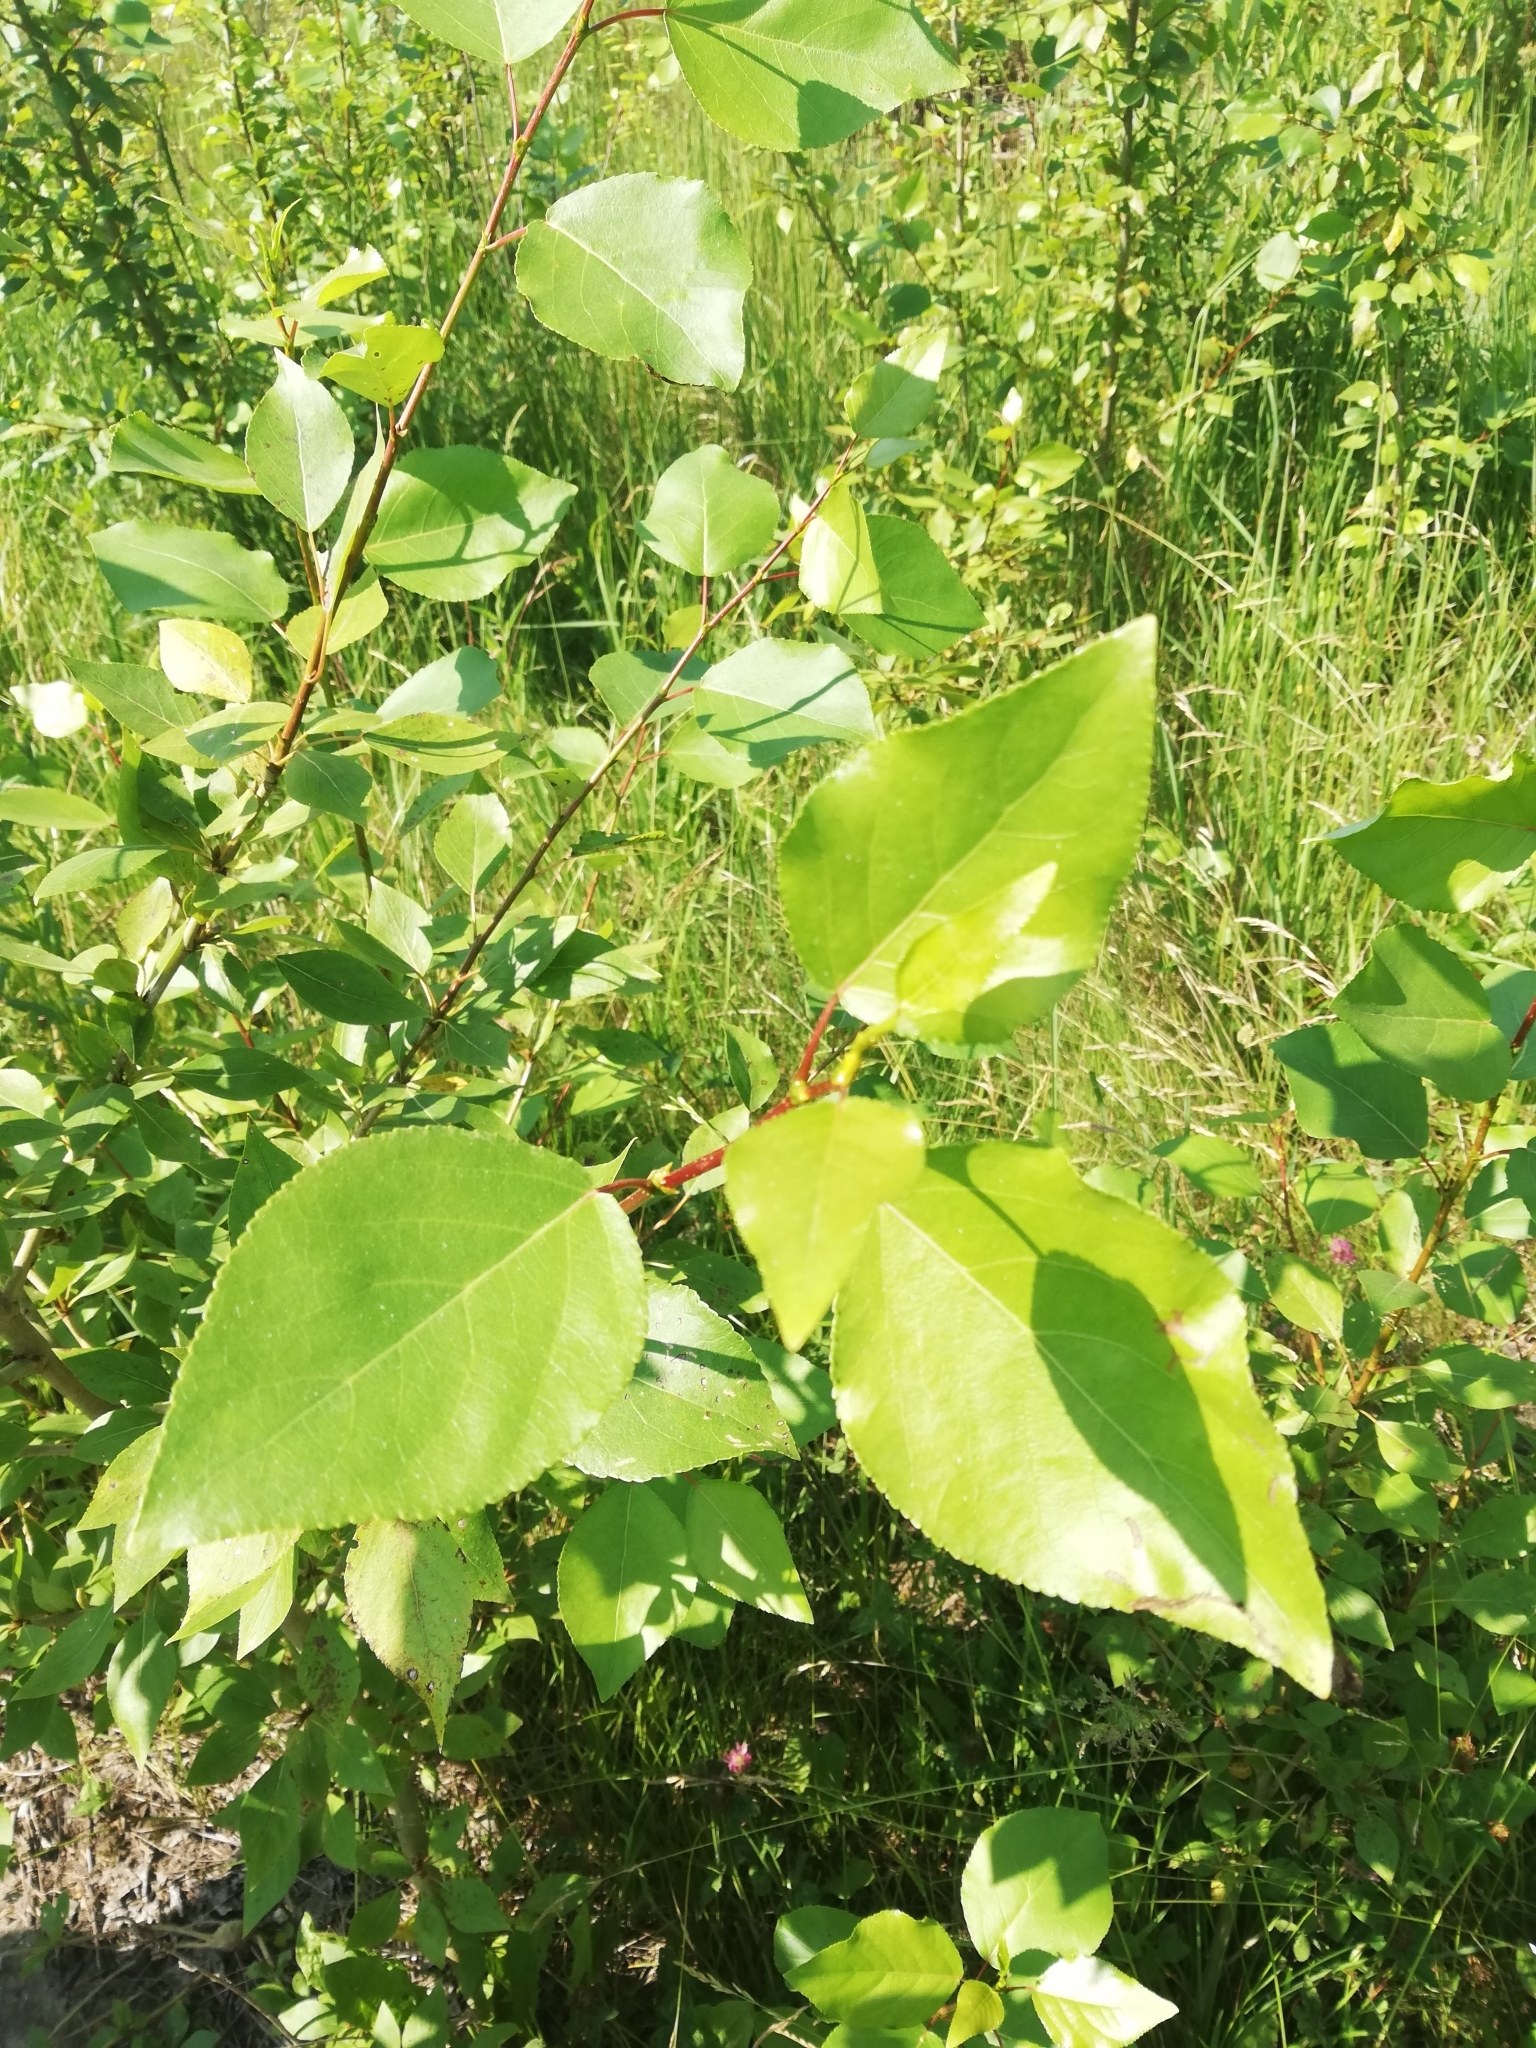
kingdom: Plantae
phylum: Tracheophyta
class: Magnoliopsida
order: Malpighiales
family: Salicaceae
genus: Populus
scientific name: Populus
